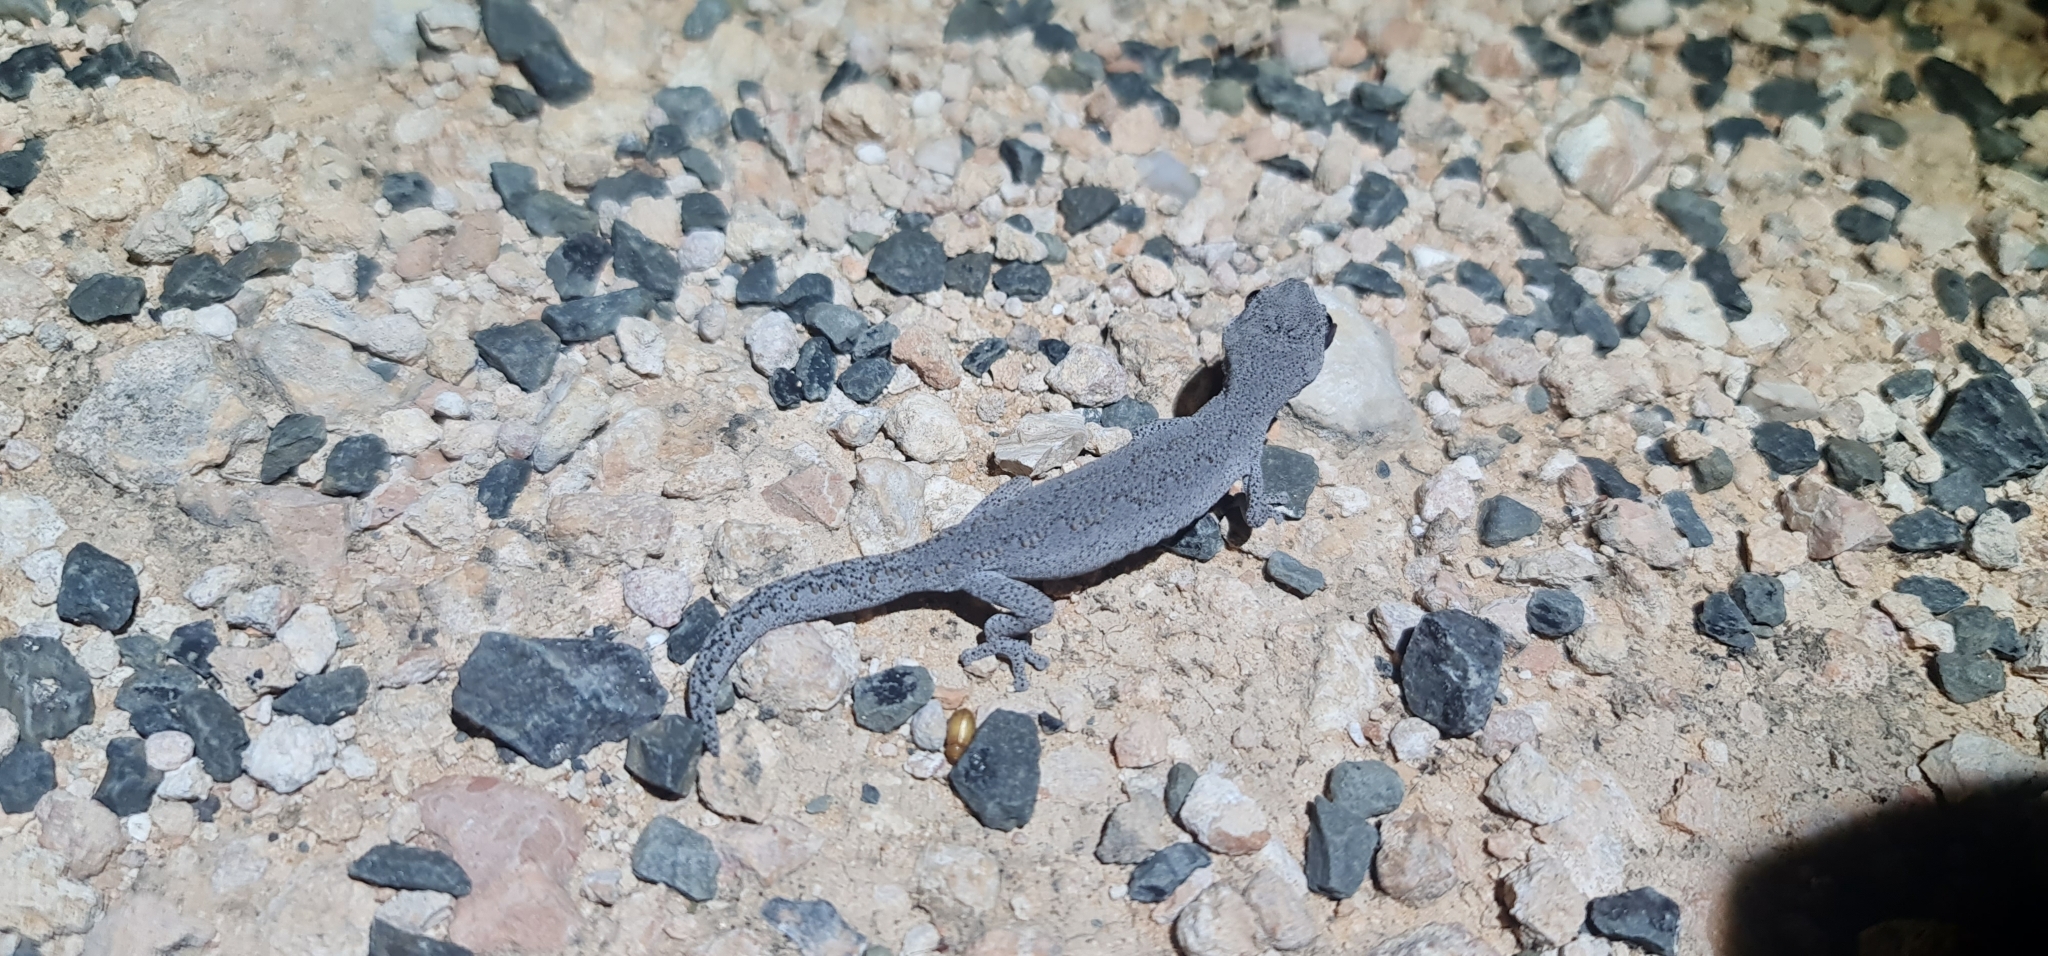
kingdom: Animalia
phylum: Chordata
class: Squamata
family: Diplodactylidae
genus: Strophurus
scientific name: Strophurus intermedius
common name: Eastern spiny-tailed gecko
